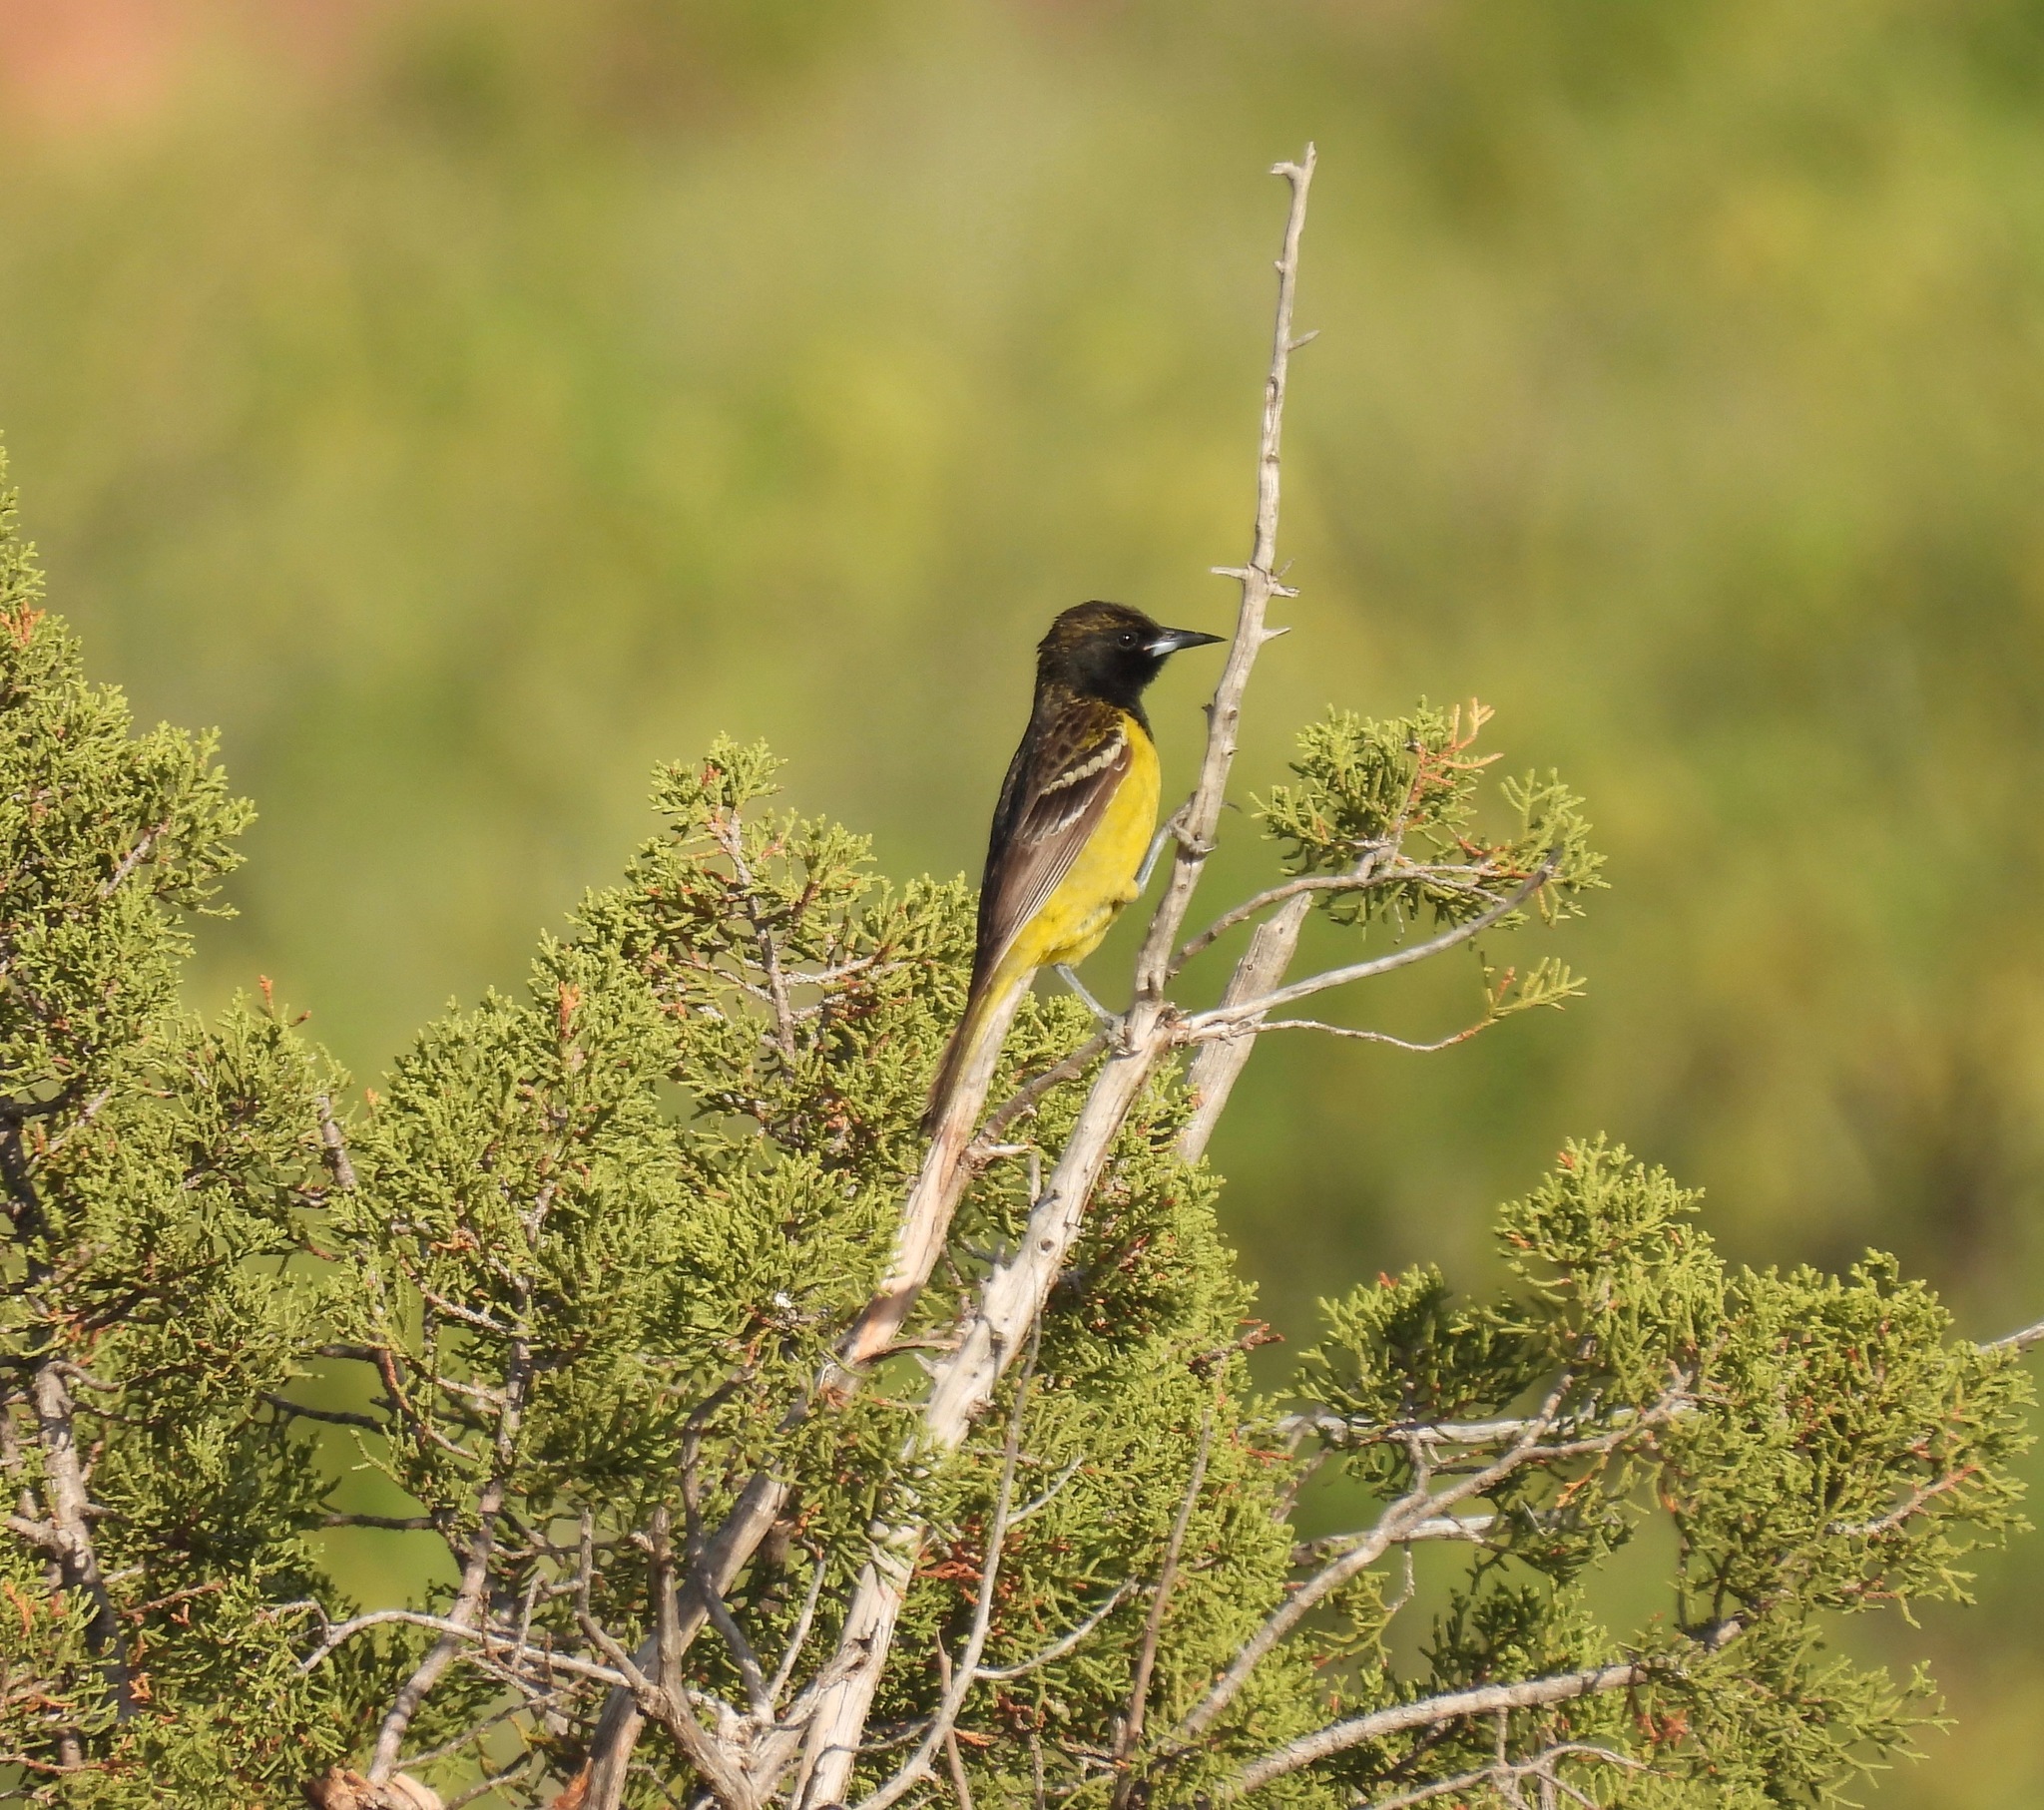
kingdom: Animalia
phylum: Chordata
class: Aves
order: Passeriformes
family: Icteridae
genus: Icterus
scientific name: Icterus parisorum
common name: Scott's oriole
